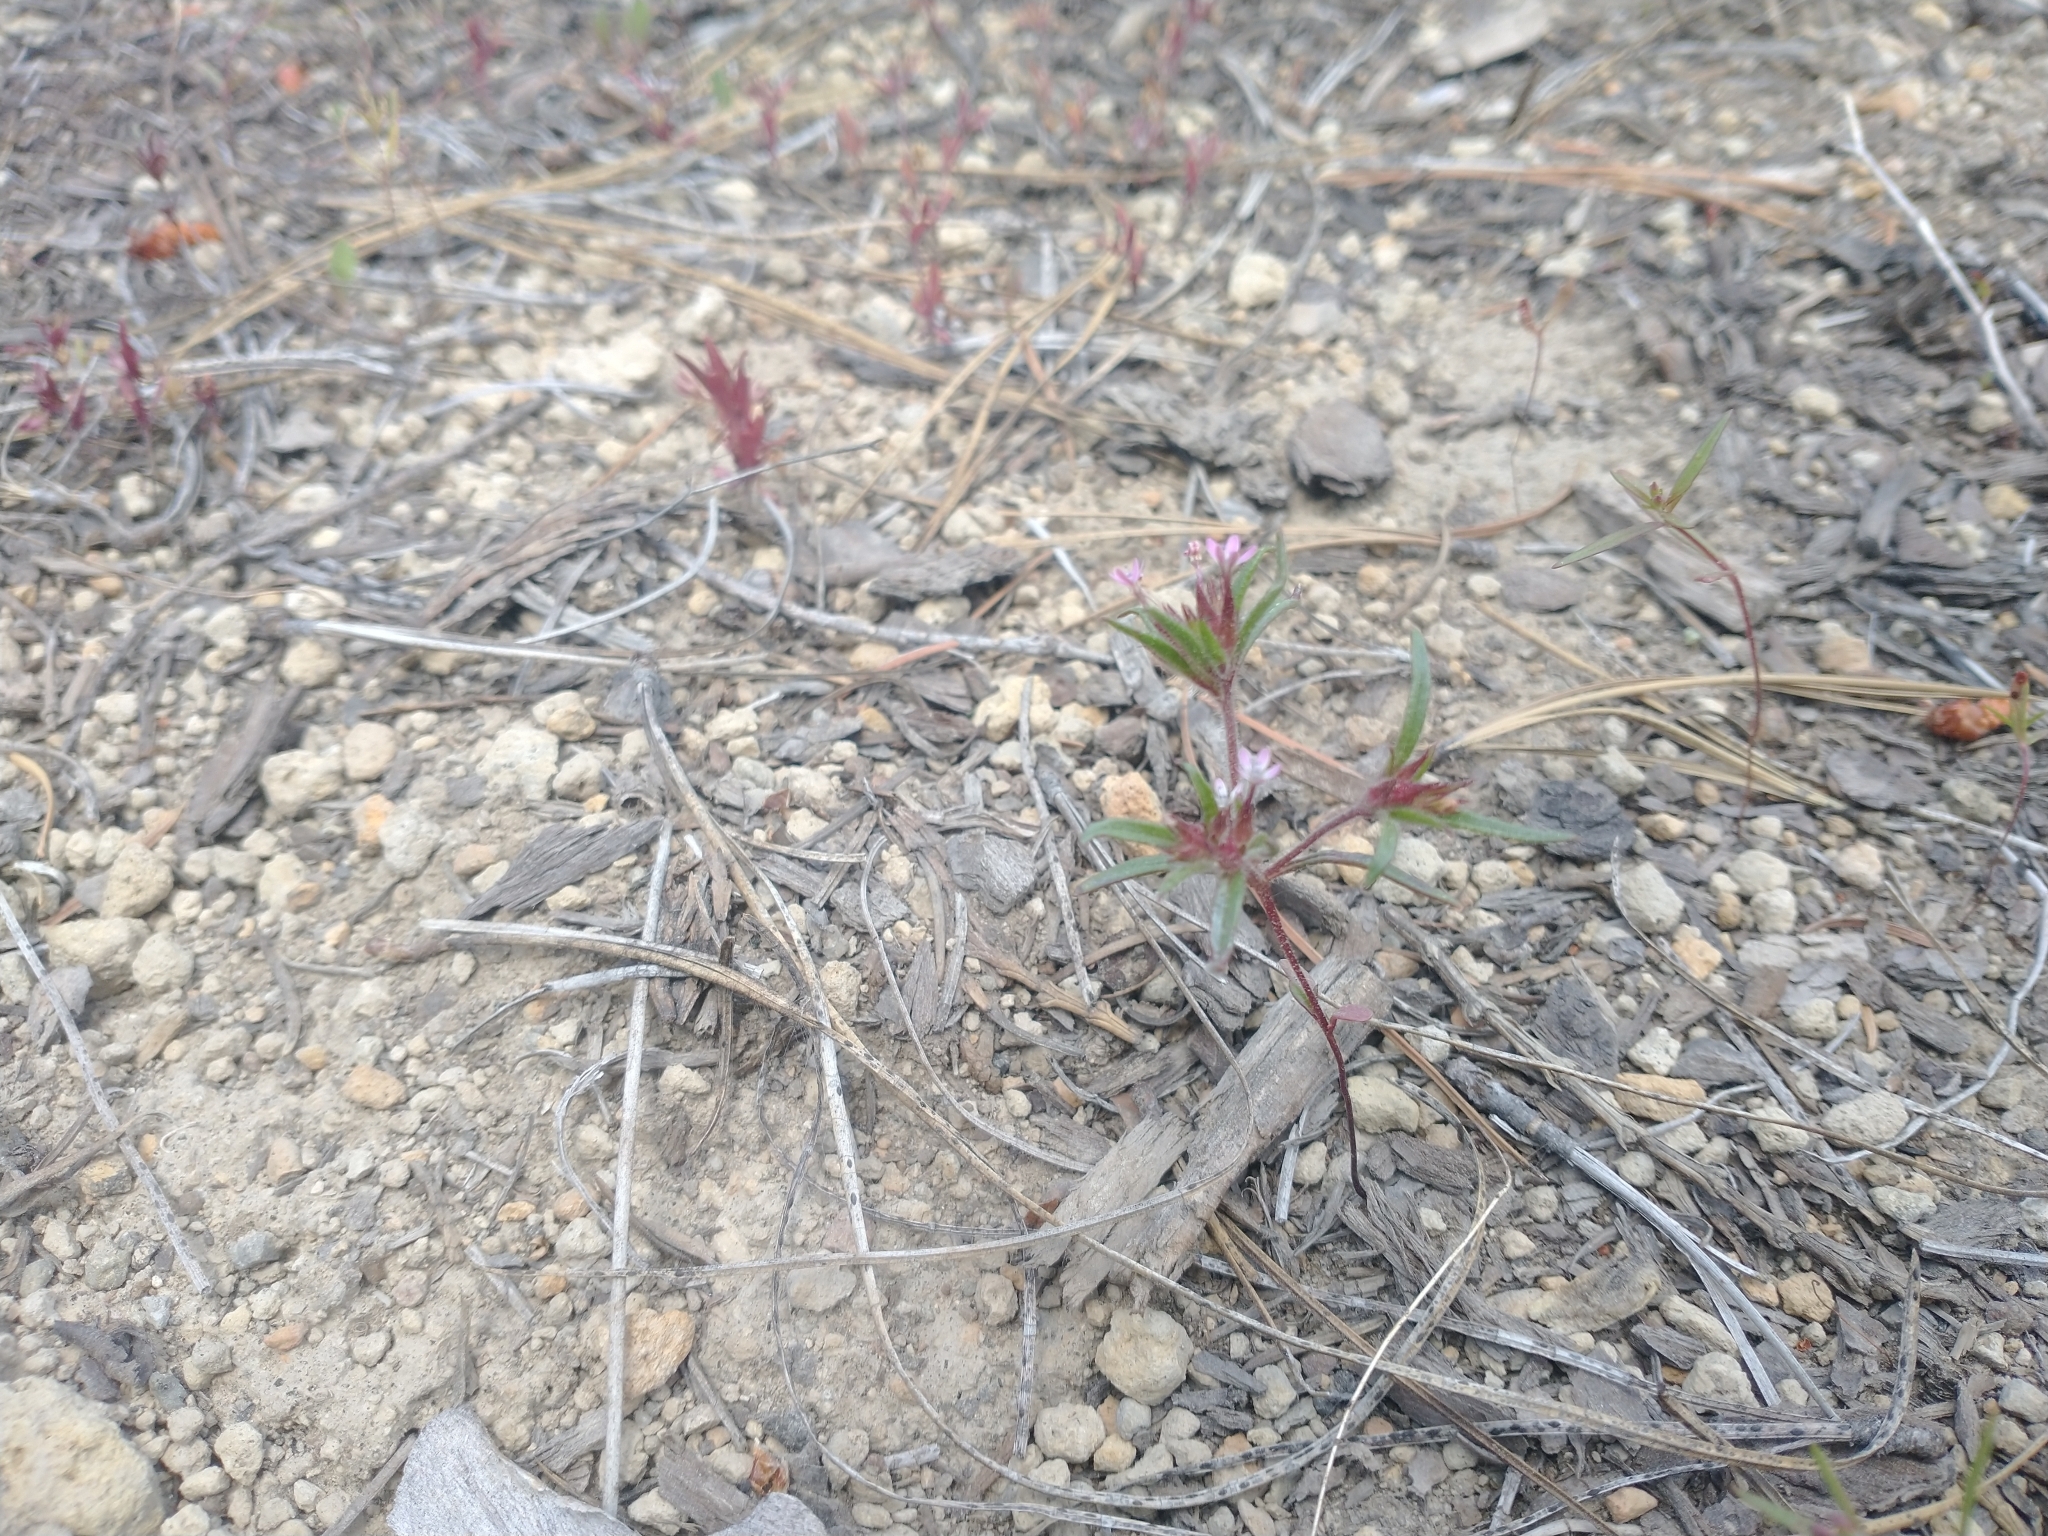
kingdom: Plantae
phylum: Tracheophyta
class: Magnoliopsida
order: Ericales
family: Polemoniaceae
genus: Collomia
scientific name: Collomia tinctoria
